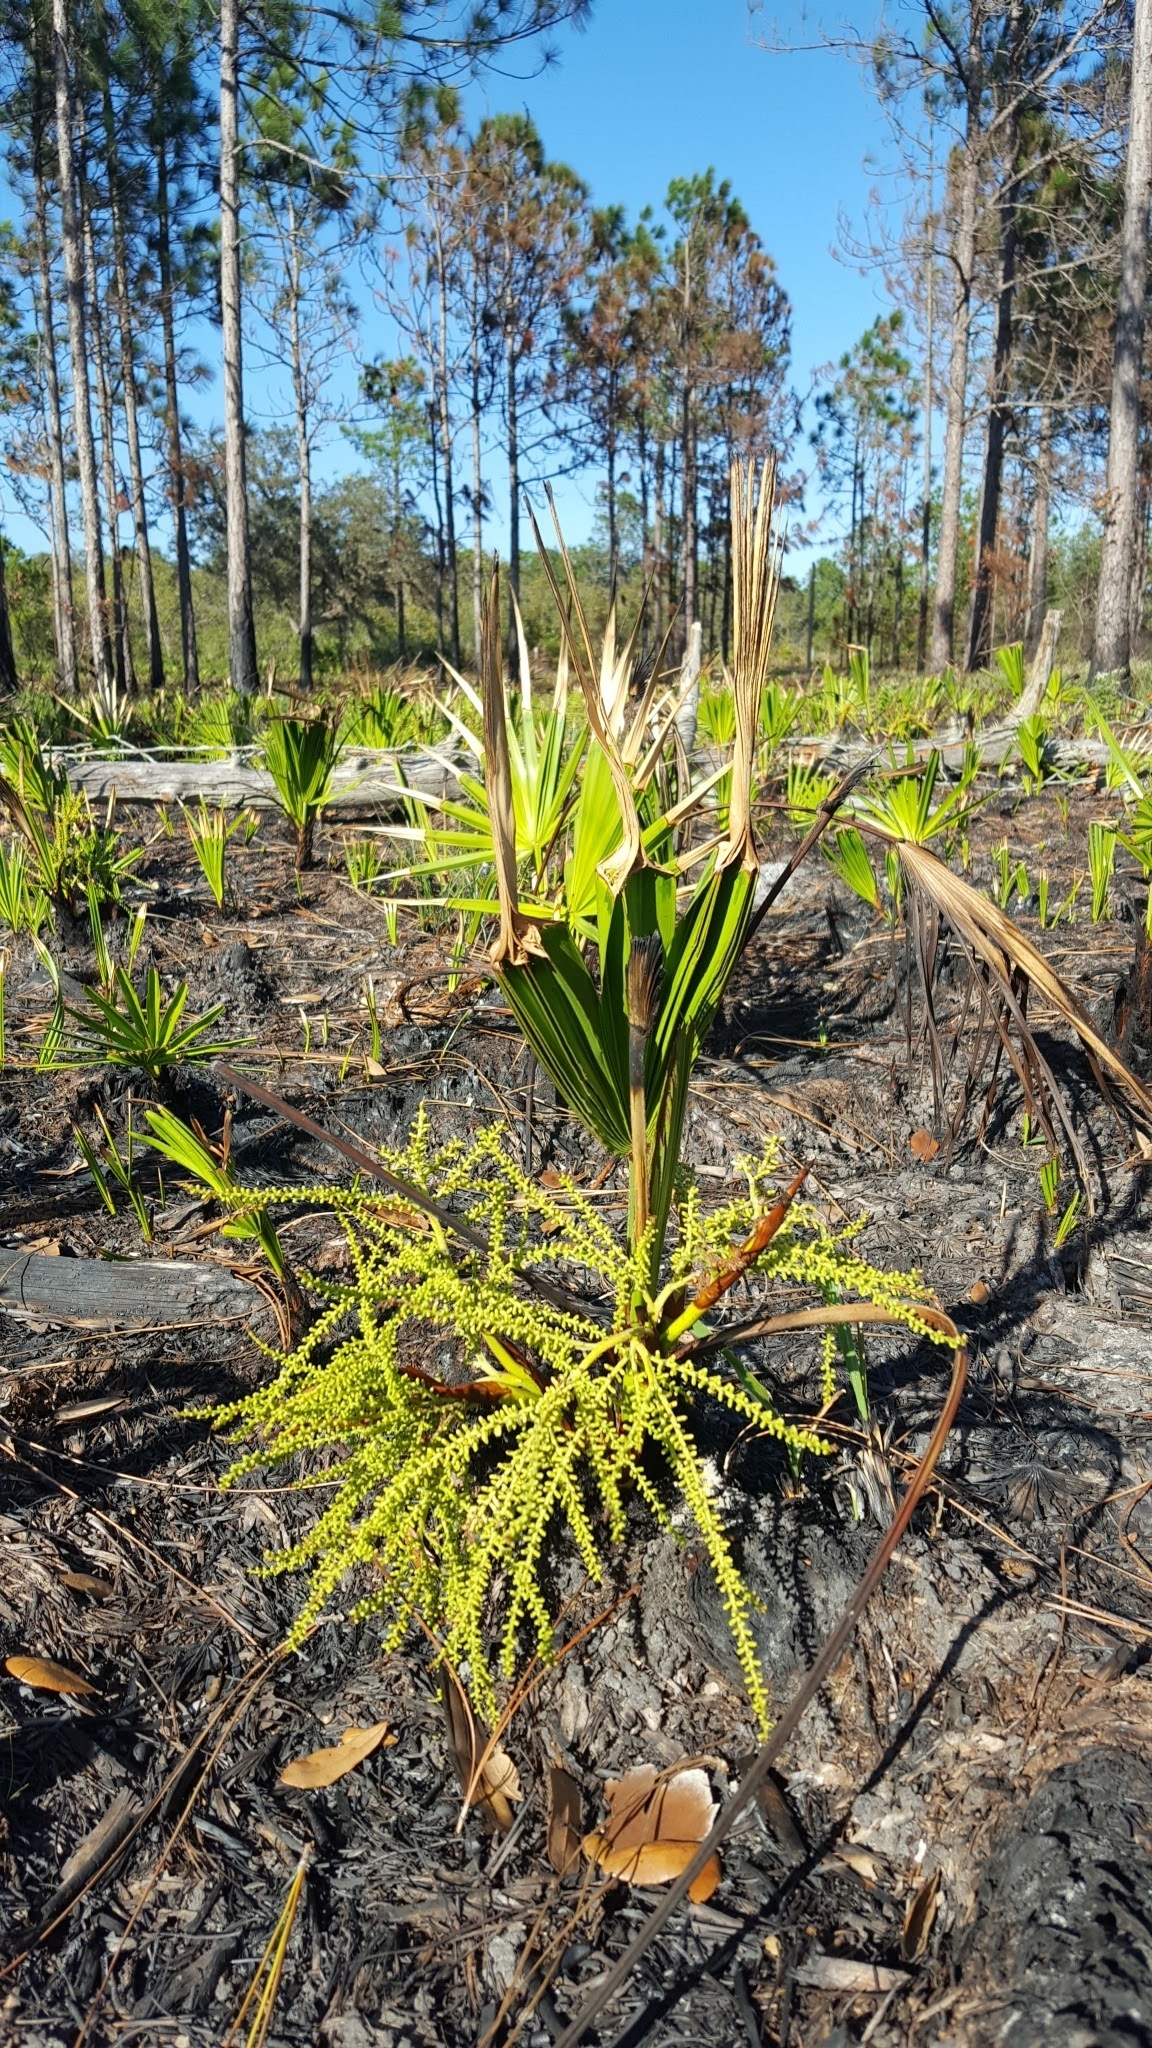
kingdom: Plantae
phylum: Tracheophyta
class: Liliopsida
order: Arecales
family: Arecaceae
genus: Serenoa
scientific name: Serenoa repens
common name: Saw-palmetto
